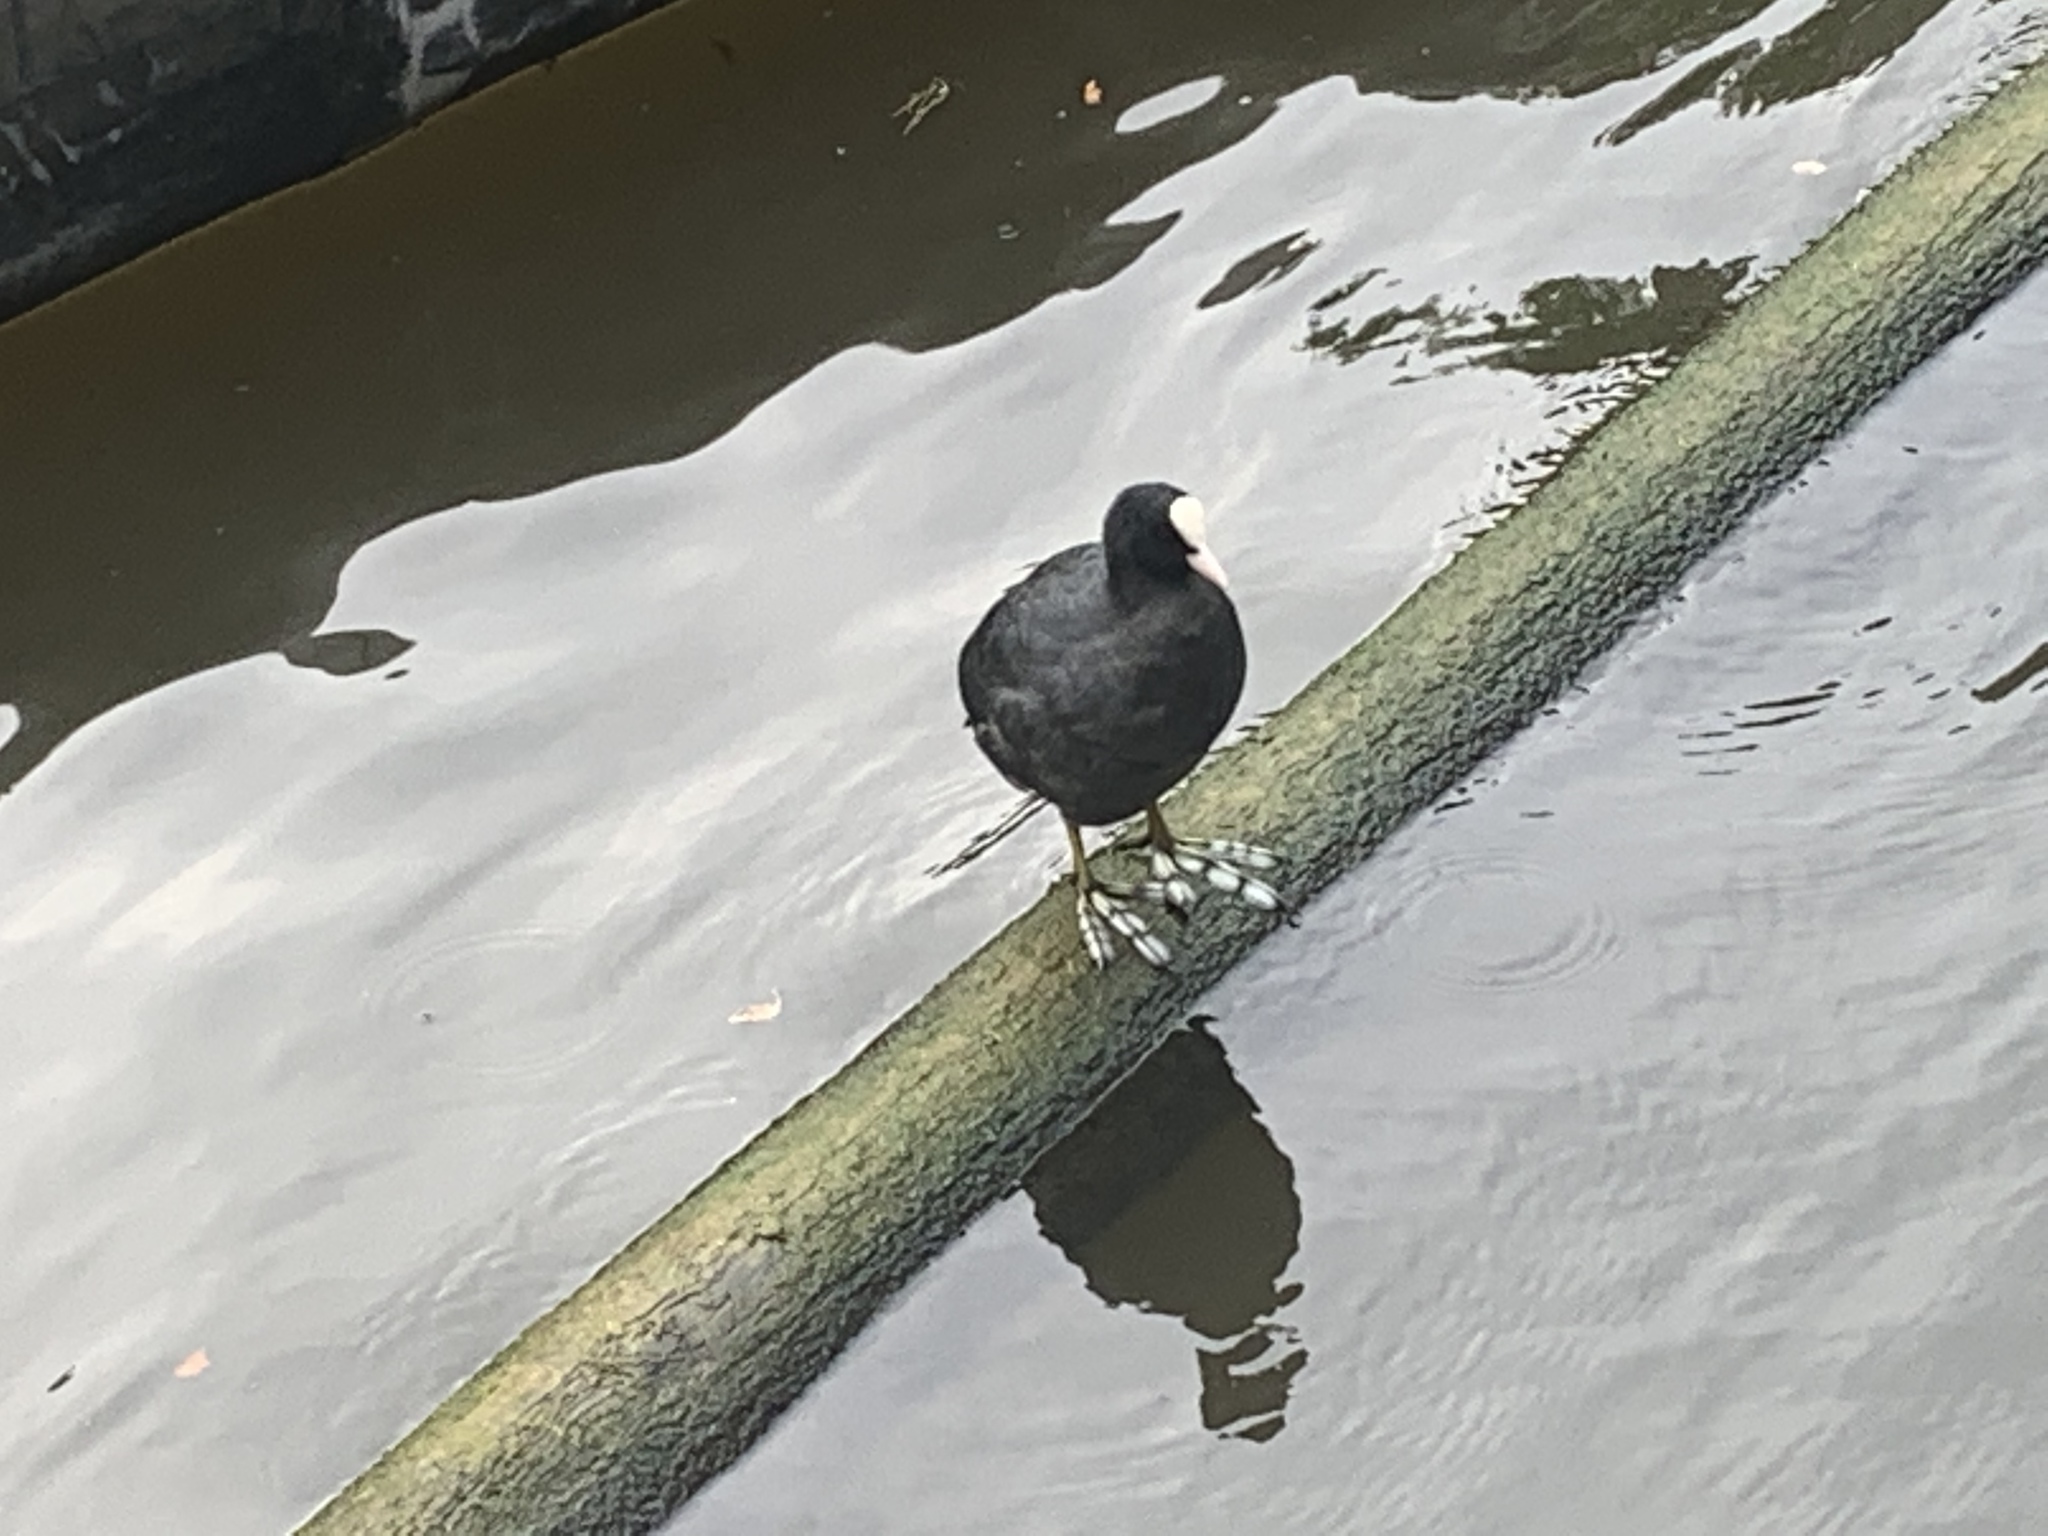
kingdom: Animalia
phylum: Chordata
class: Aves
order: Gruiformes
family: Rallidae
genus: Fulica
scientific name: Fulica atra
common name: Eurasian coot
